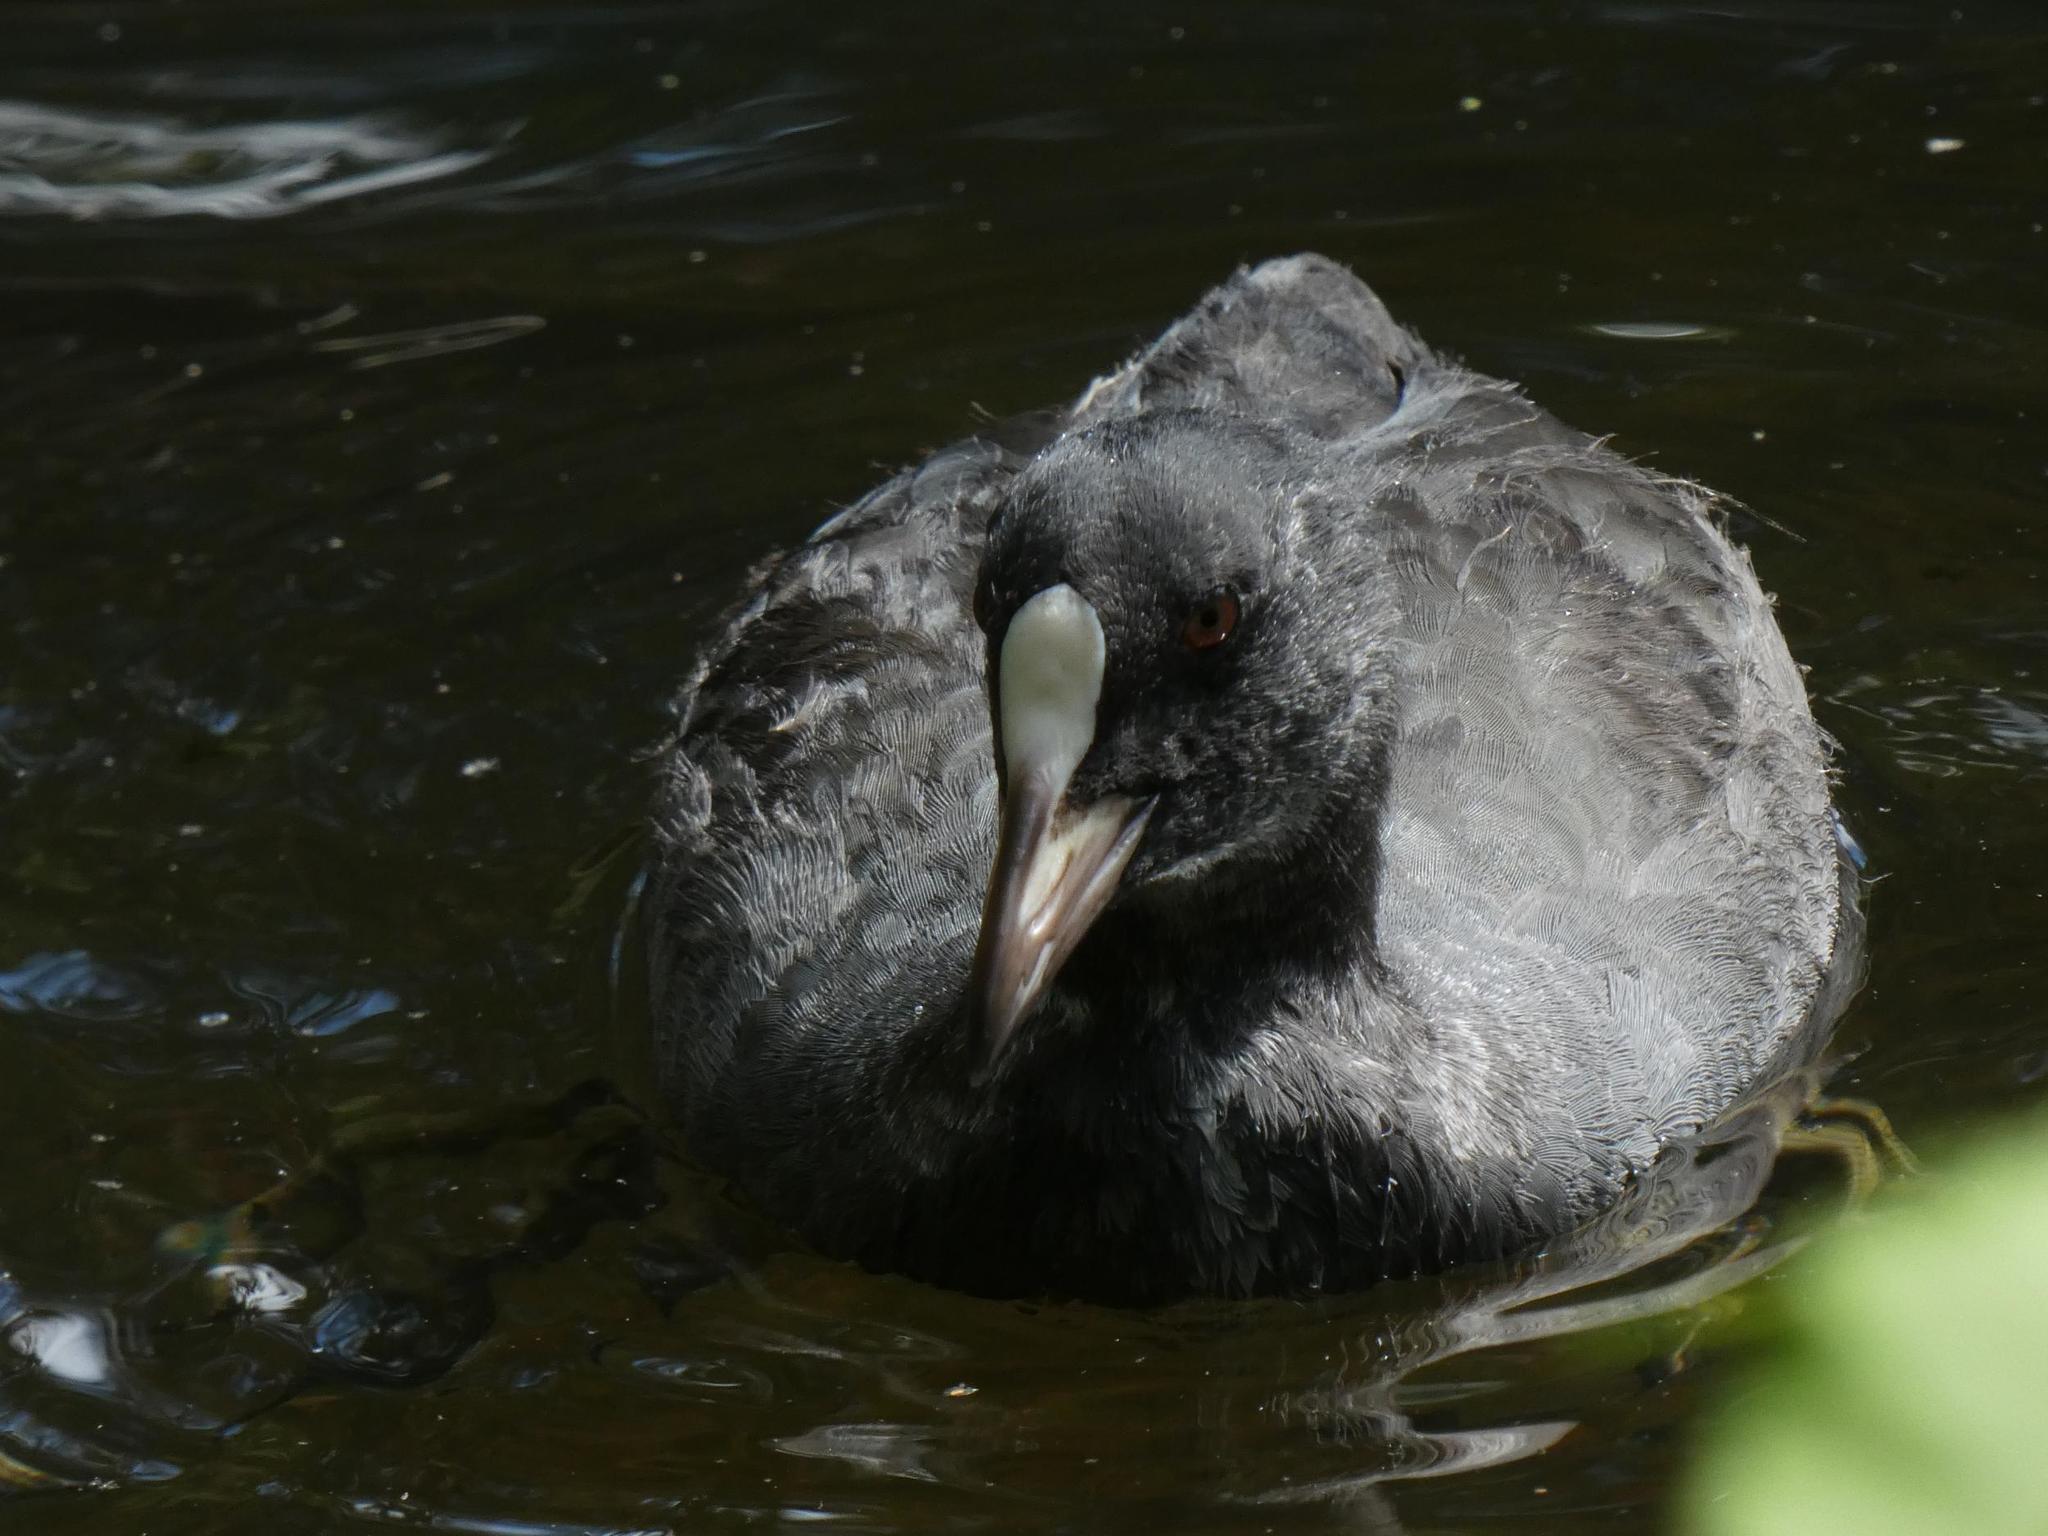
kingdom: Animalia
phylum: Chordata
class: Aves
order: Gruiformes
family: Rallidae
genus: Fulica
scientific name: Fulica atra
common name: Eurasian coot
